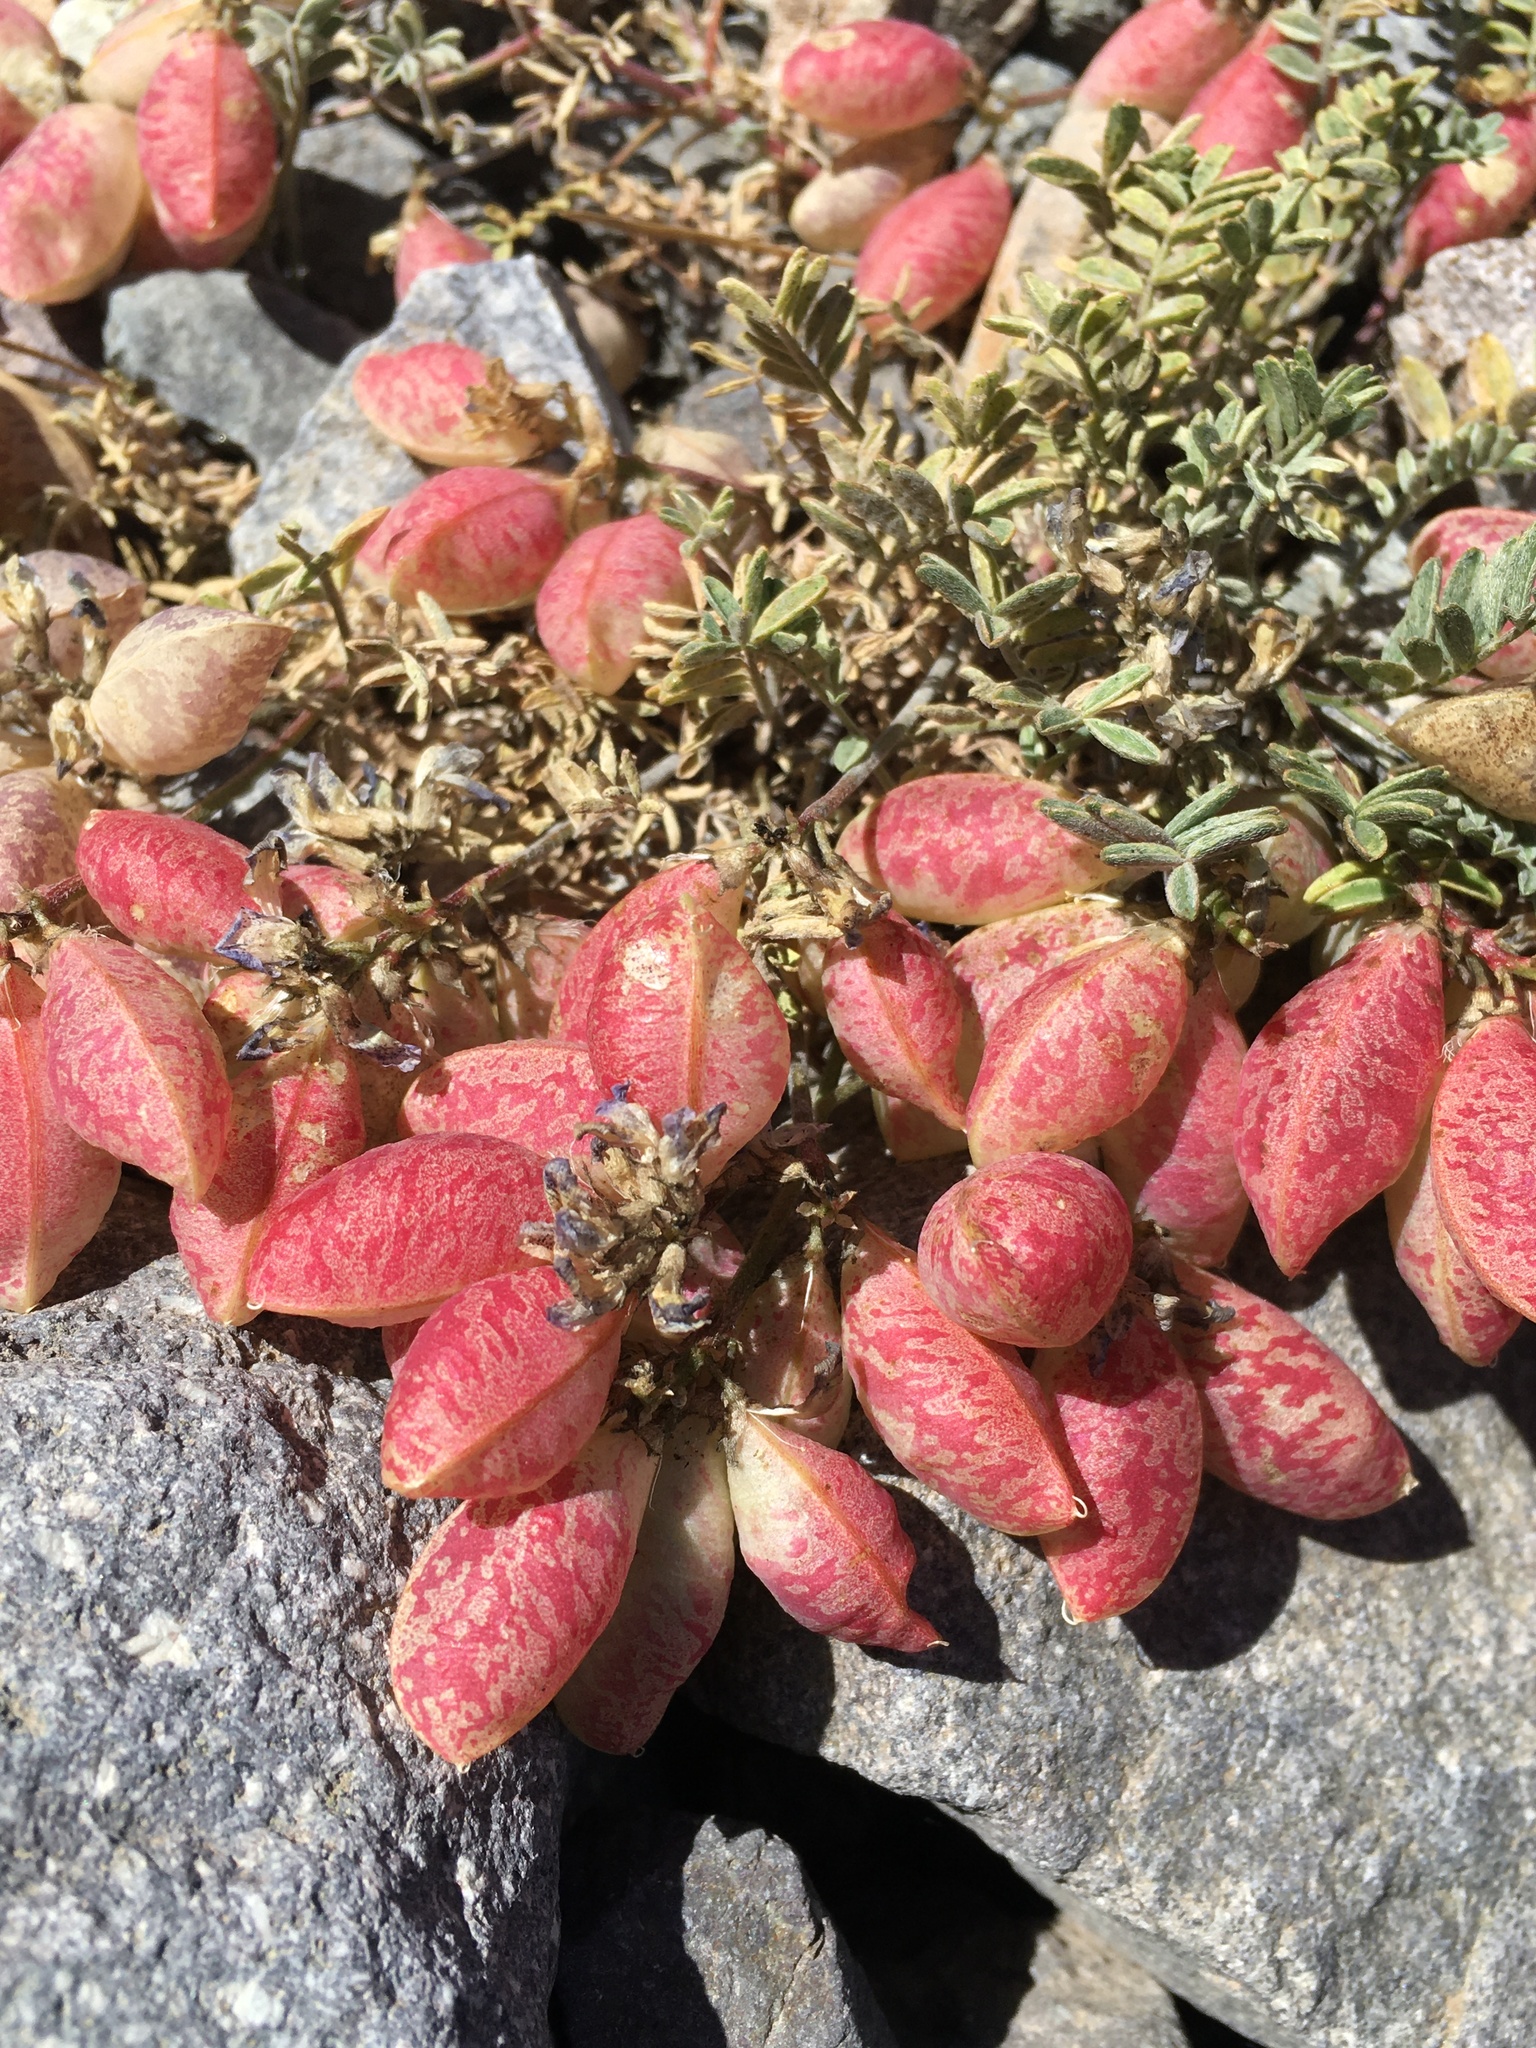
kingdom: Plantae
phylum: Tracheophyta
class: Magnoliopsida
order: Fabales
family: Fabaceae
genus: Astragalus
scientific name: Astragalus arnottianus
